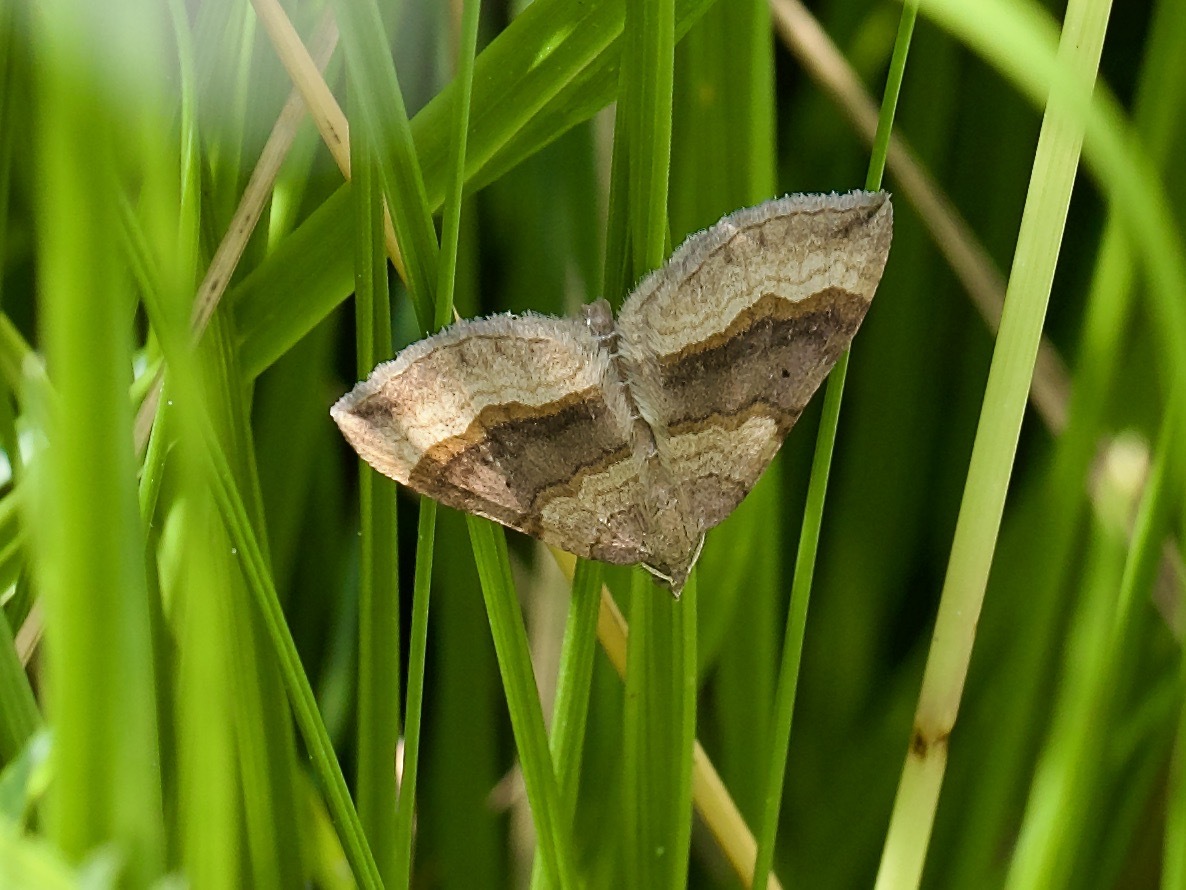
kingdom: Animalia
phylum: Arthropoda
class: Insecta
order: Lepidoptera
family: Geometridae
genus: Scotopteryx
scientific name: Scotopteryx chenopodiata
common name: Shaded broad-bar
